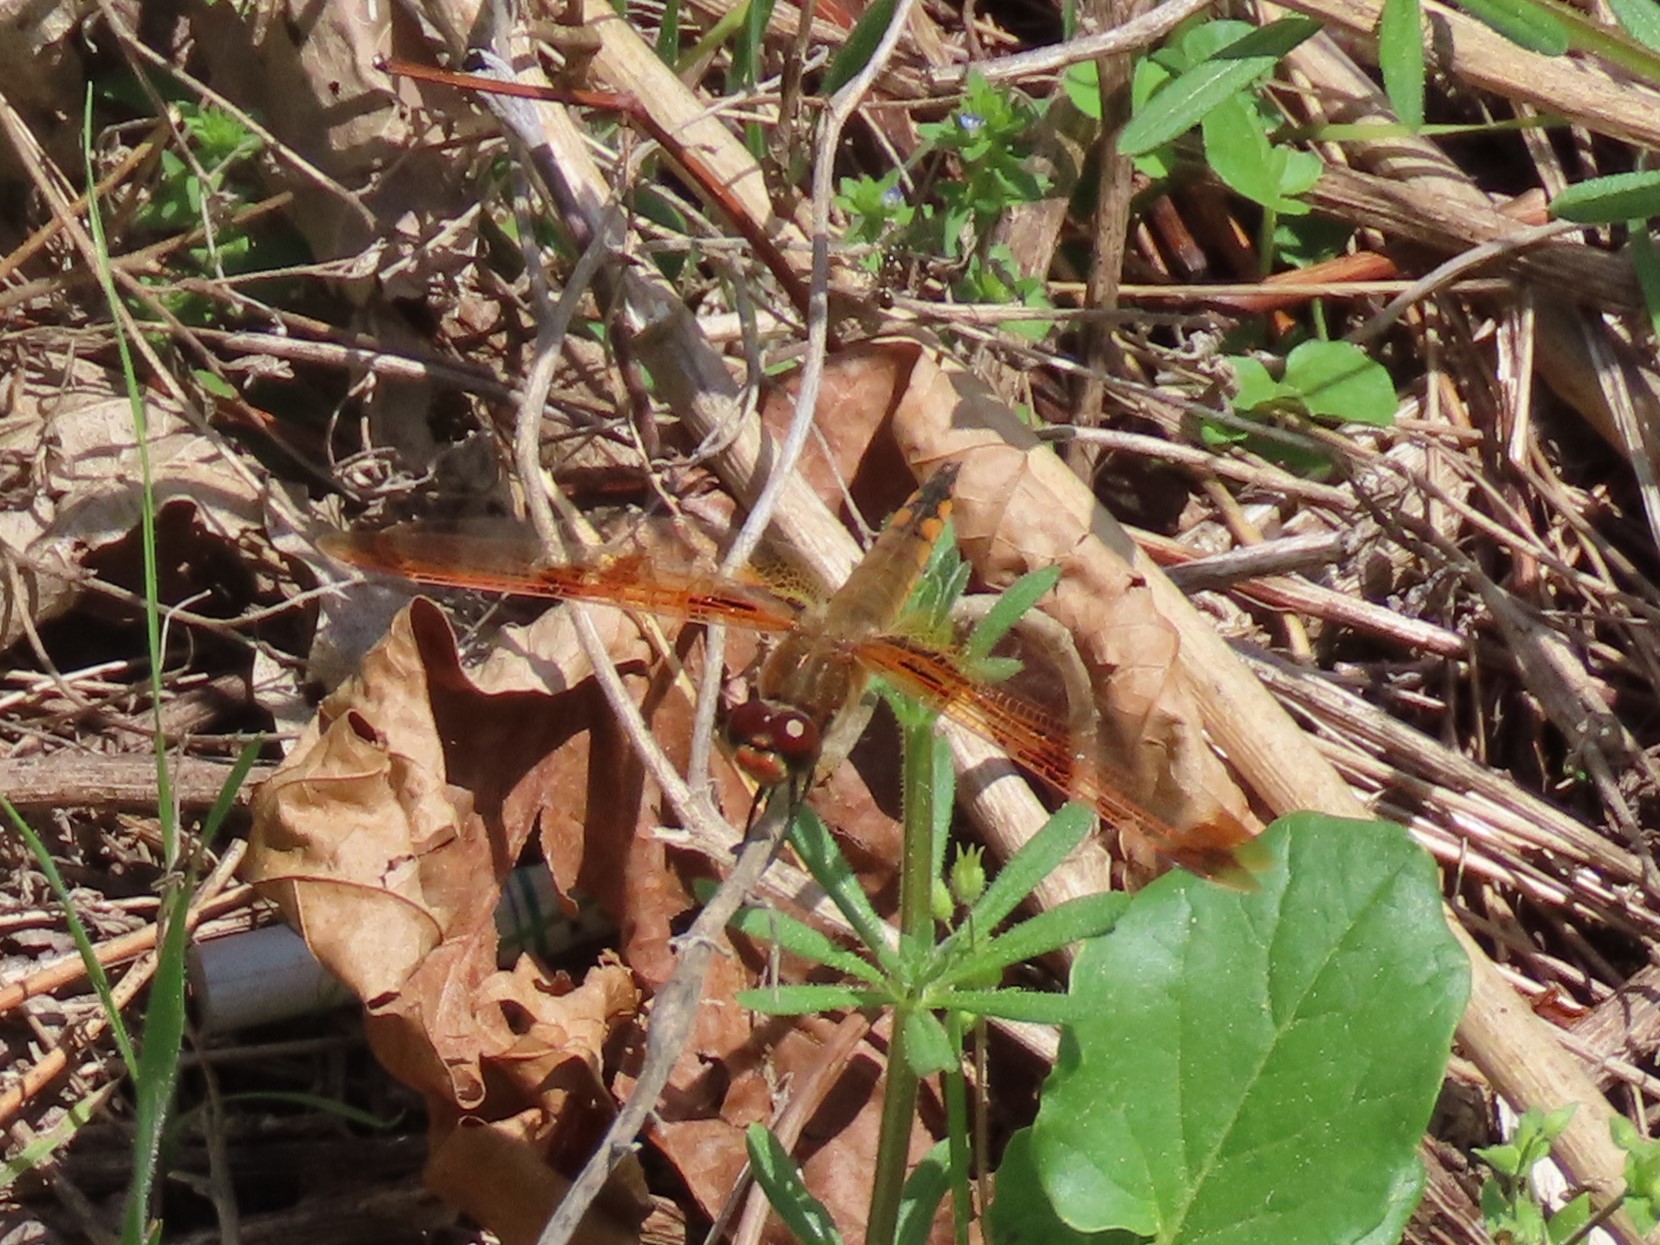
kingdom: Animalia
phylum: Arthropoda
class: Insecta
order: Odonata
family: Libellulidae
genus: Libellula
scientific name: Libellula semifasciata
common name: Painted skimmer
